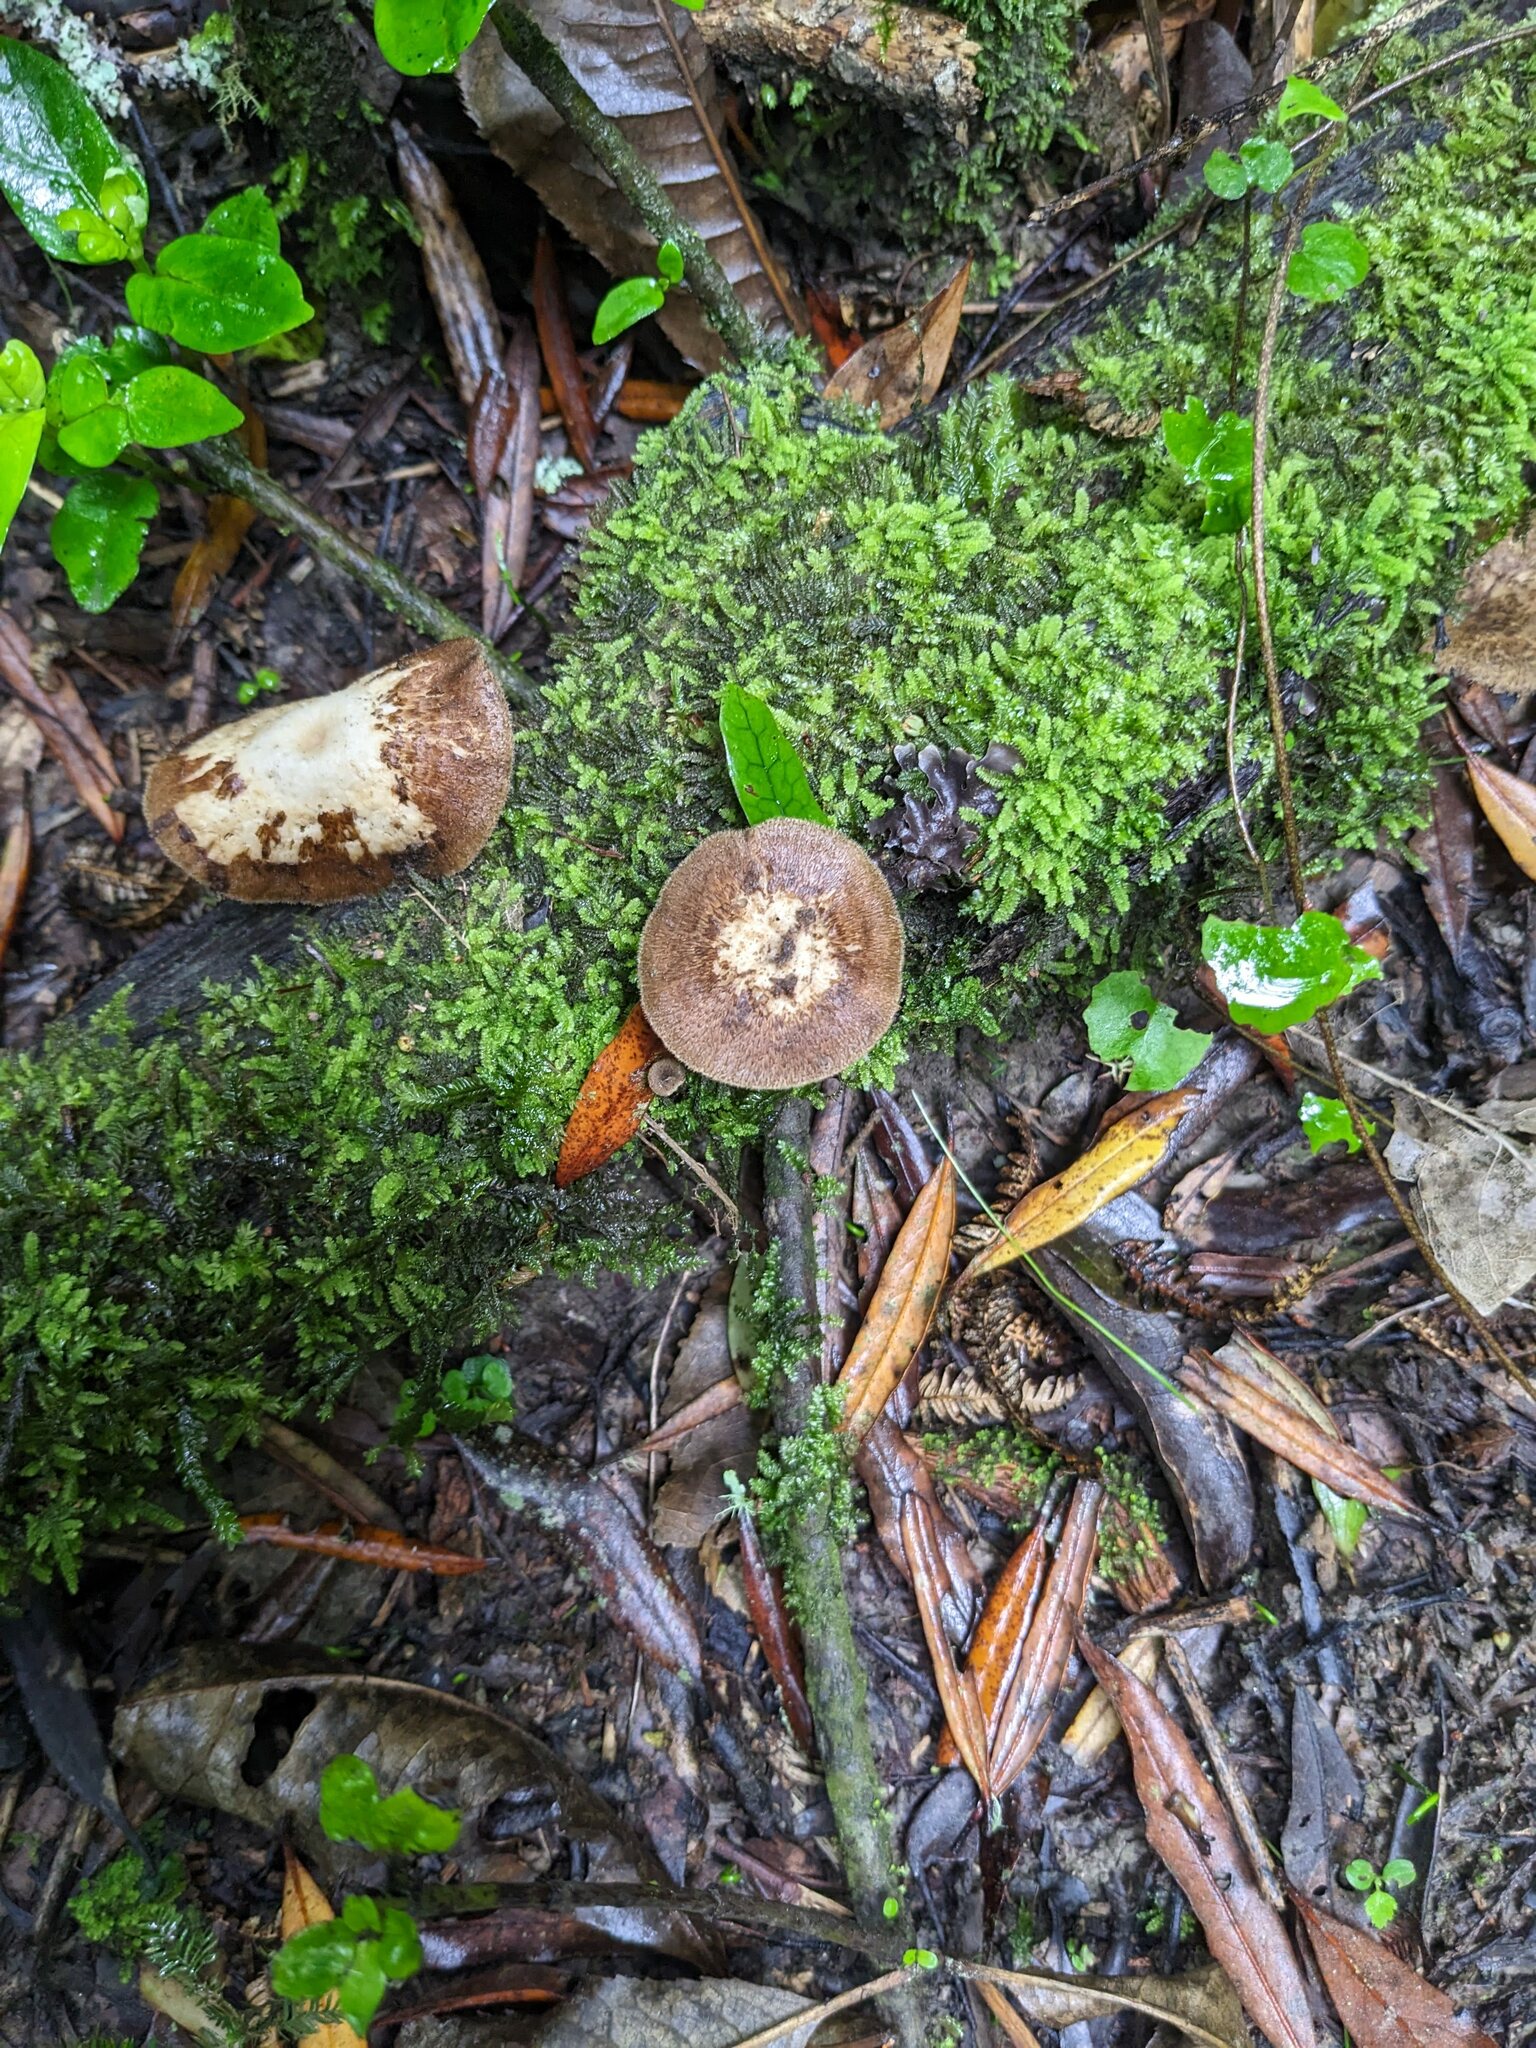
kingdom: Fungi
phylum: Basidiomycota
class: Agaricomycetes
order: Polyporales
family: Polyporaceae
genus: Lentinus
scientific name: Lentinus arcularius
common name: Spring polypore
